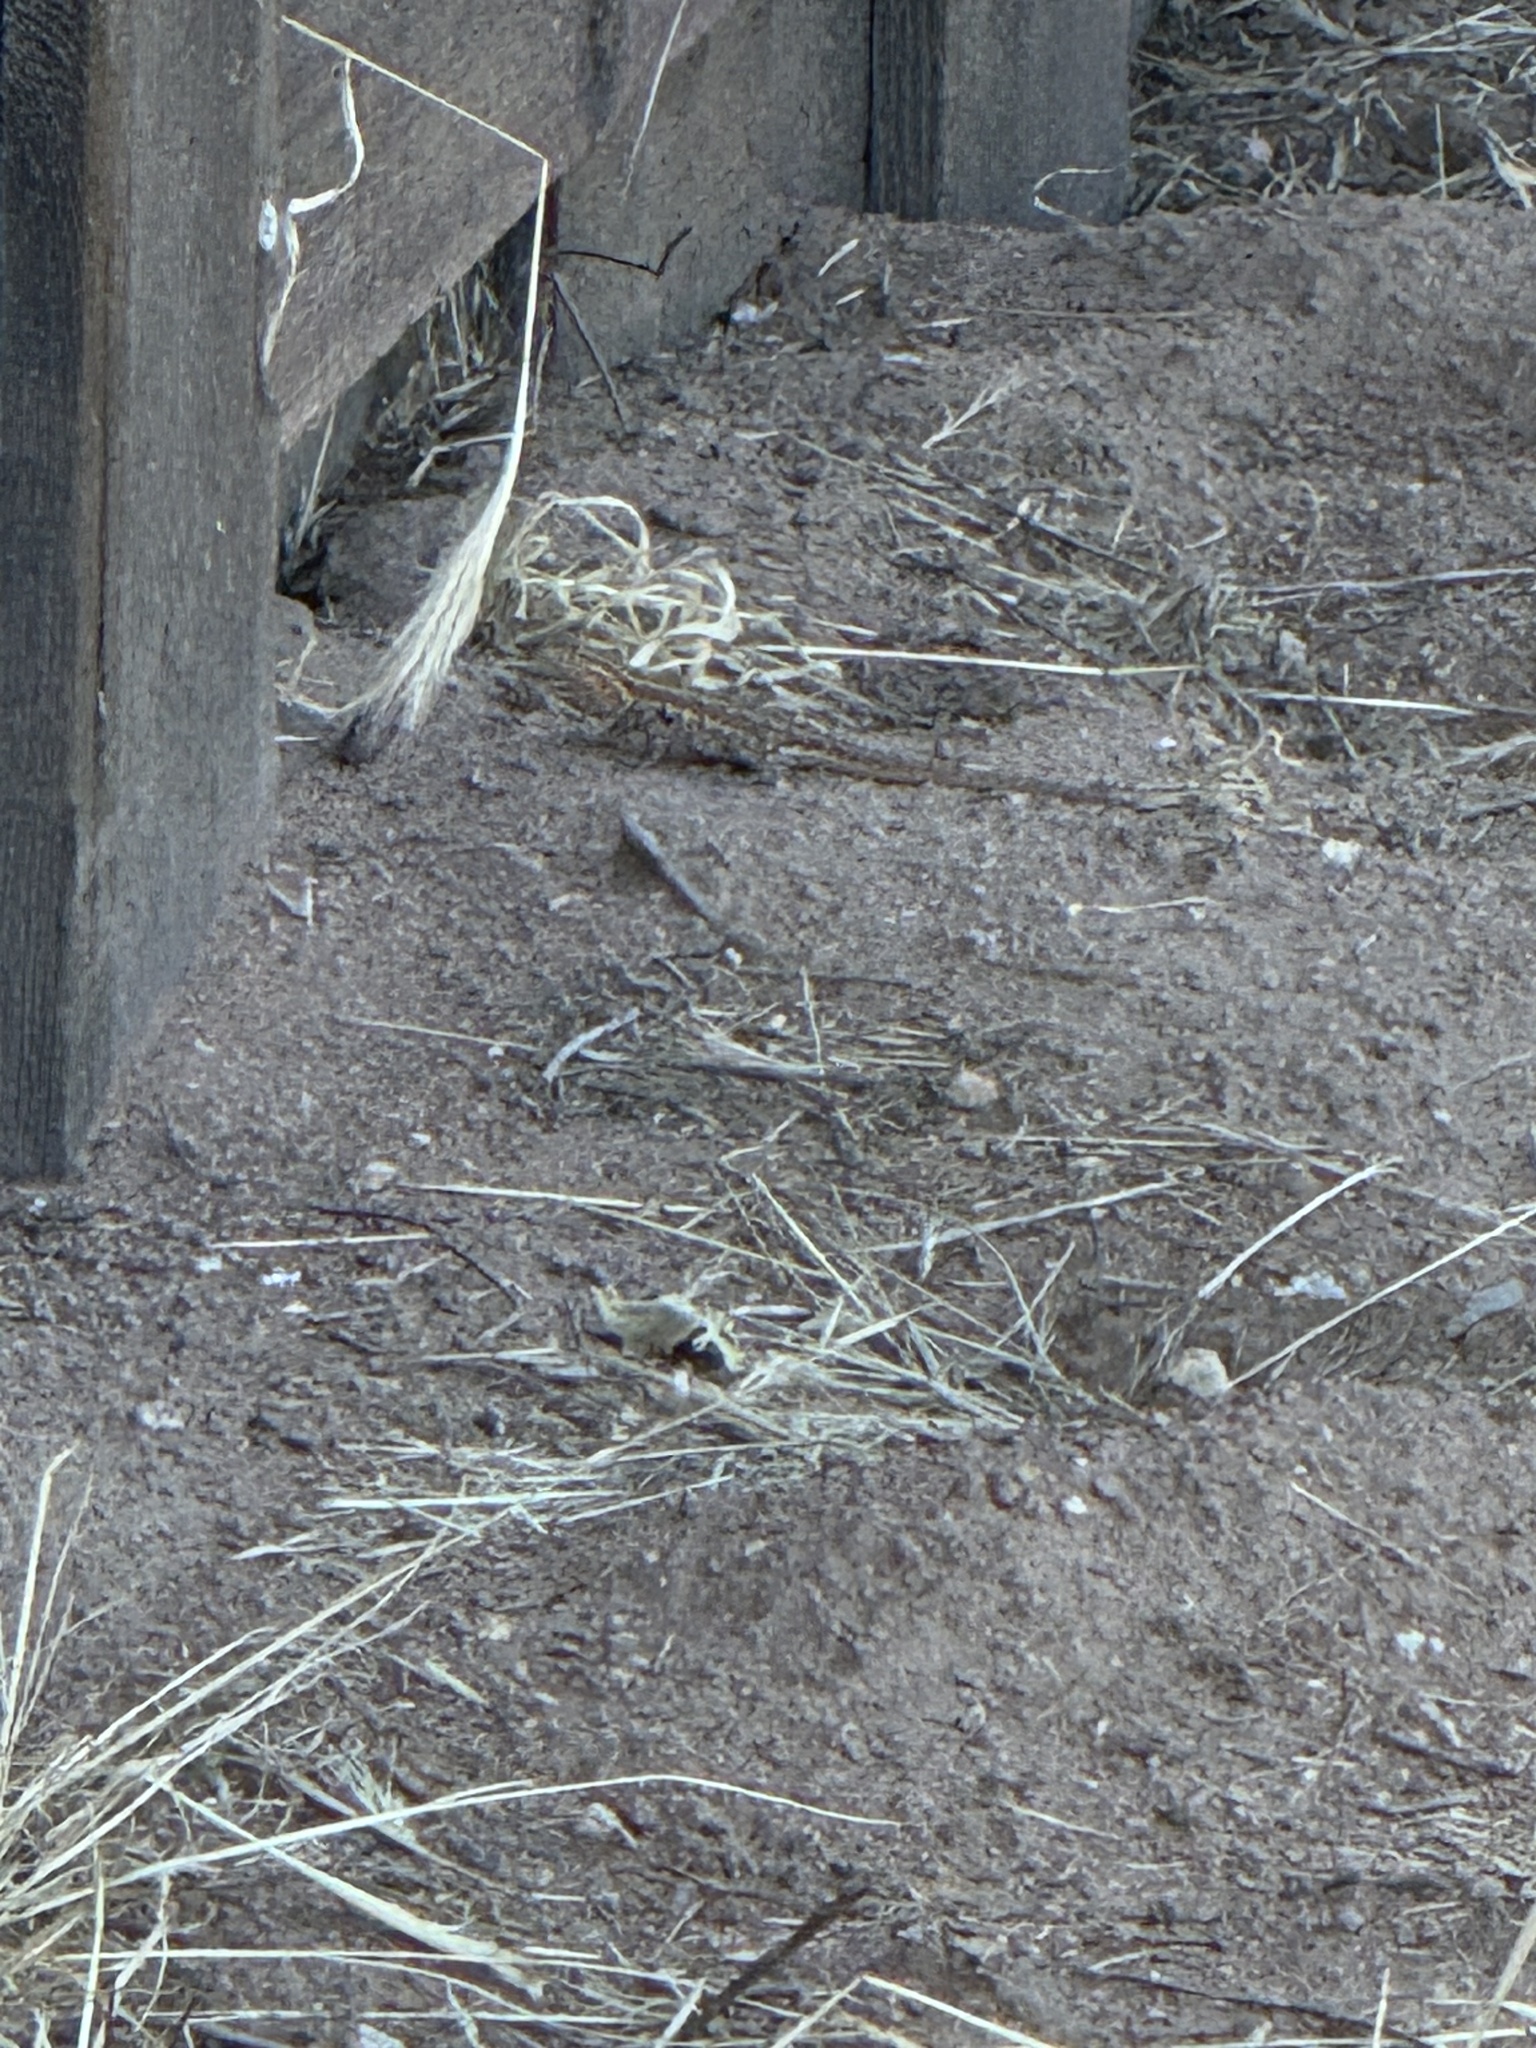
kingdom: Animalia
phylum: Chordata
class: Squamata
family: Phrynosomatidae
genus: Uta
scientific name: Uta stansburiana
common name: Side-blotched lizard
